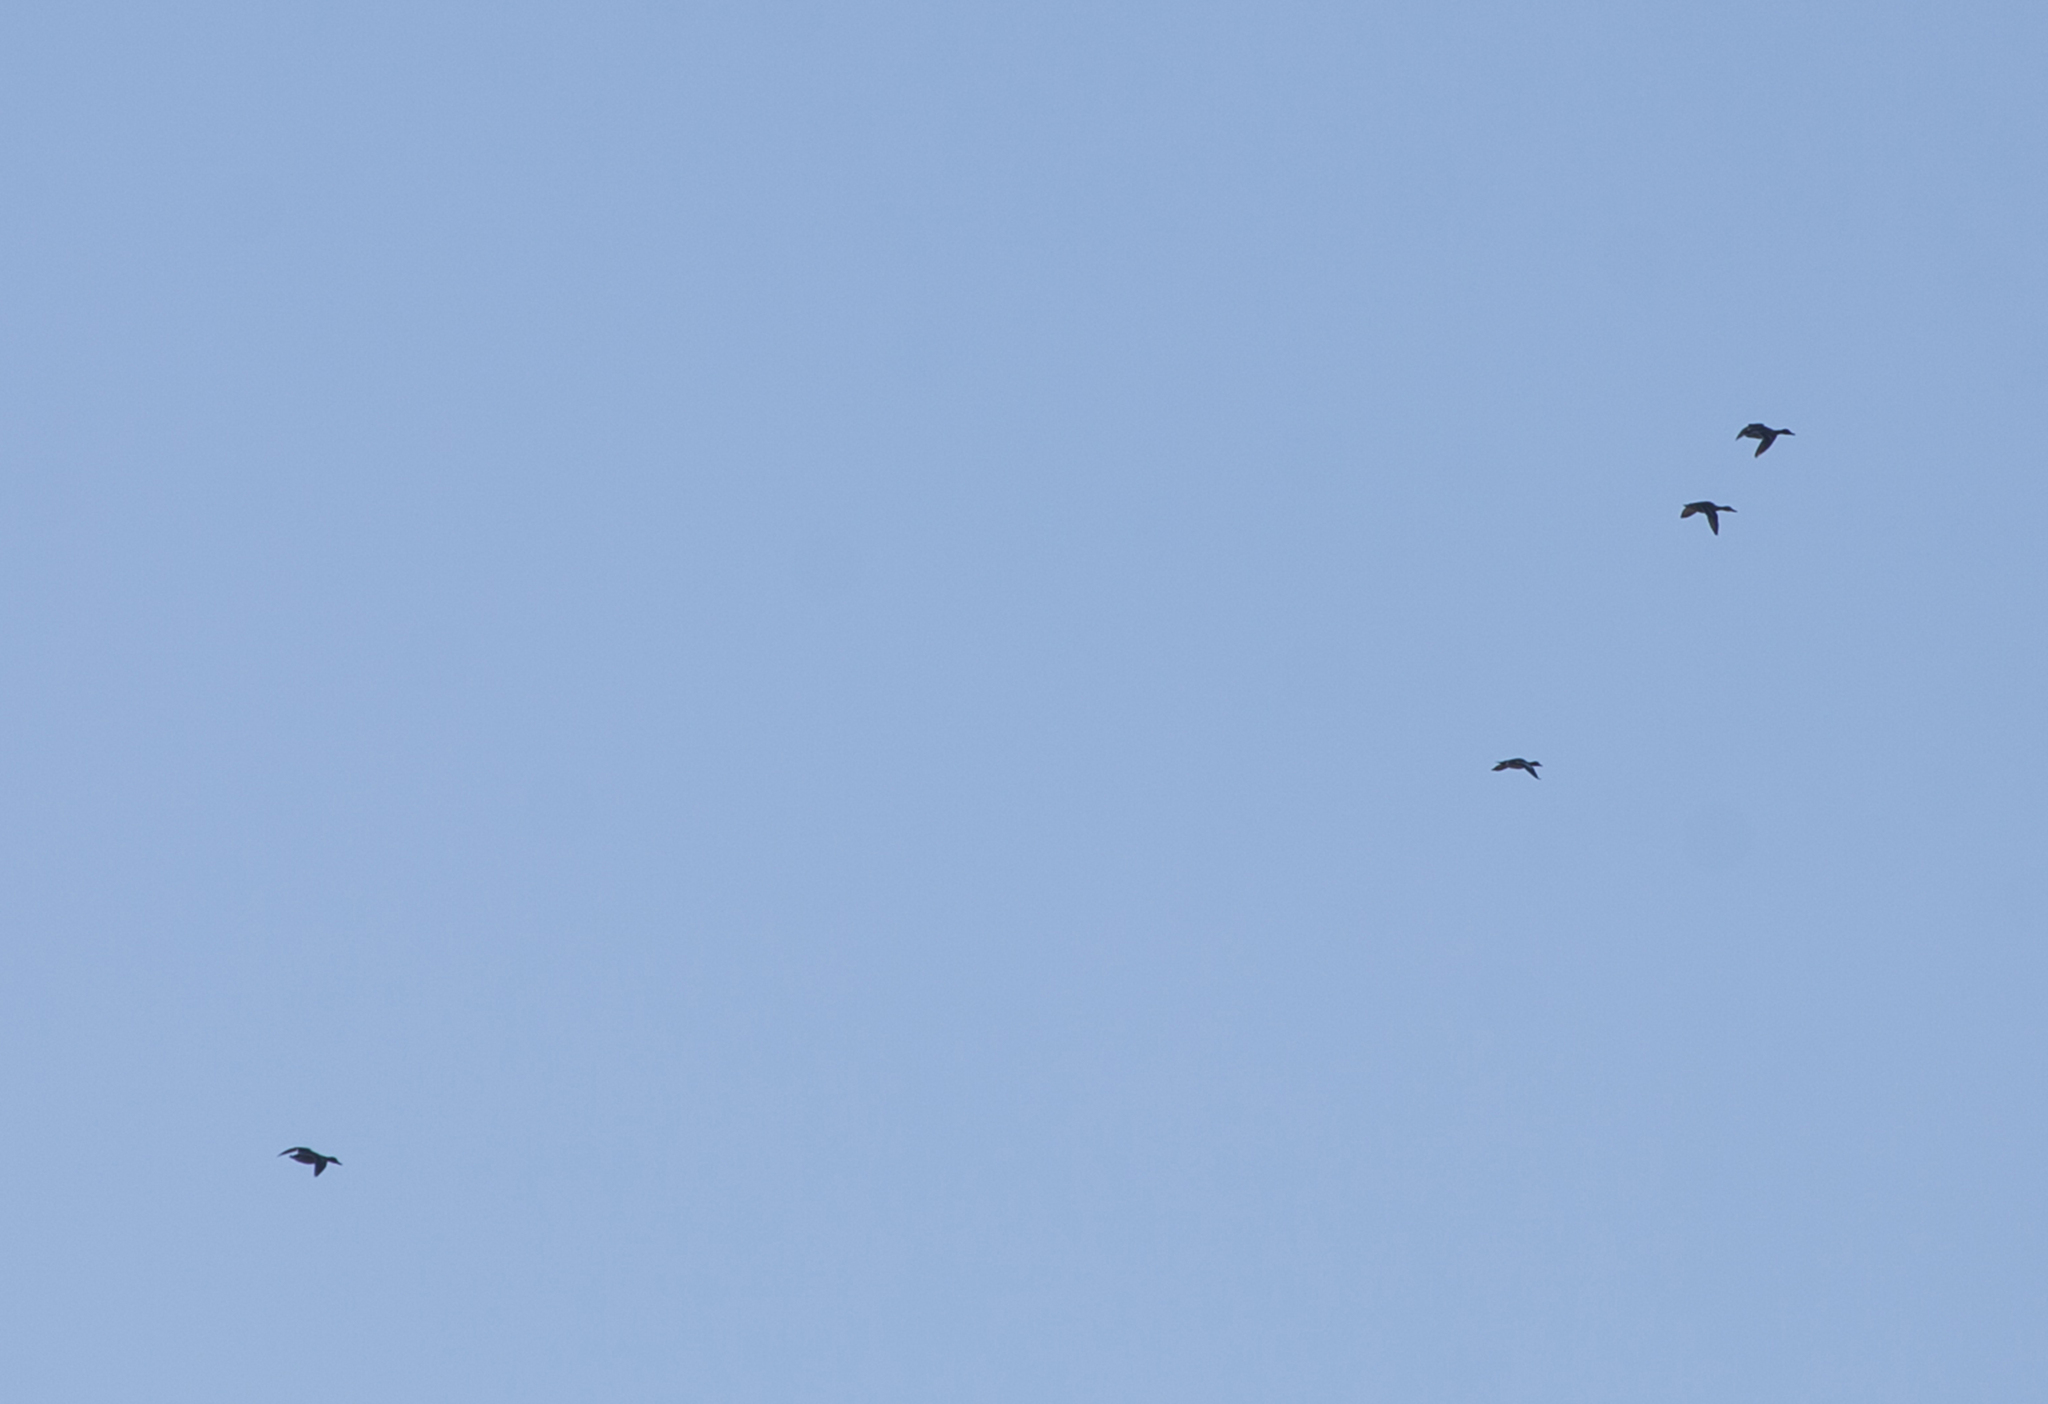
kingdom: Animalia
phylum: Chordata
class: Aves
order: Anseriformes
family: Anatidae
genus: Anas
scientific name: Anas platyrhynchos
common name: Mallard
